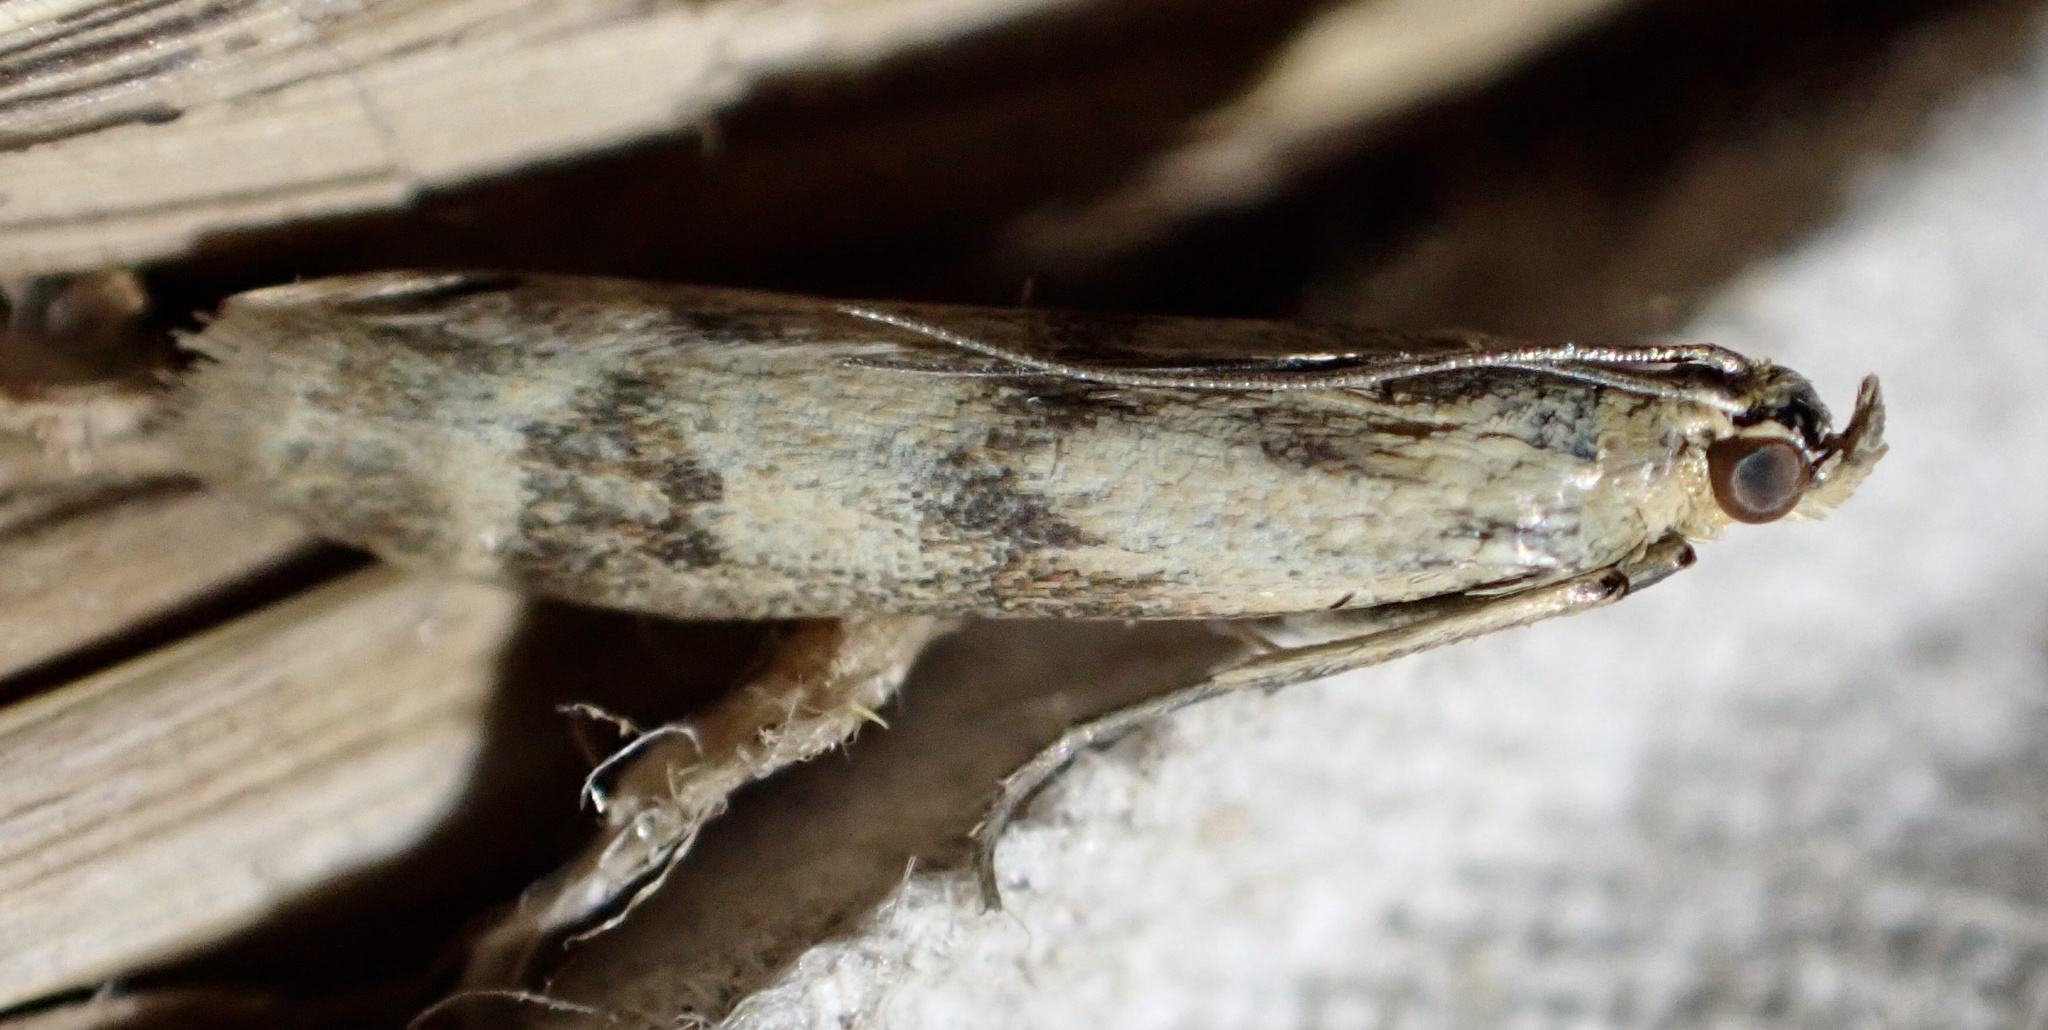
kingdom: Animalia
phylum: Arthropoda
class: Insecta
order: Lepidoptera
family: Pyralidae
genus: Homoeosoma
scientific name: Homoeosoma sinuella
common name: Twin-barred knot-horn
